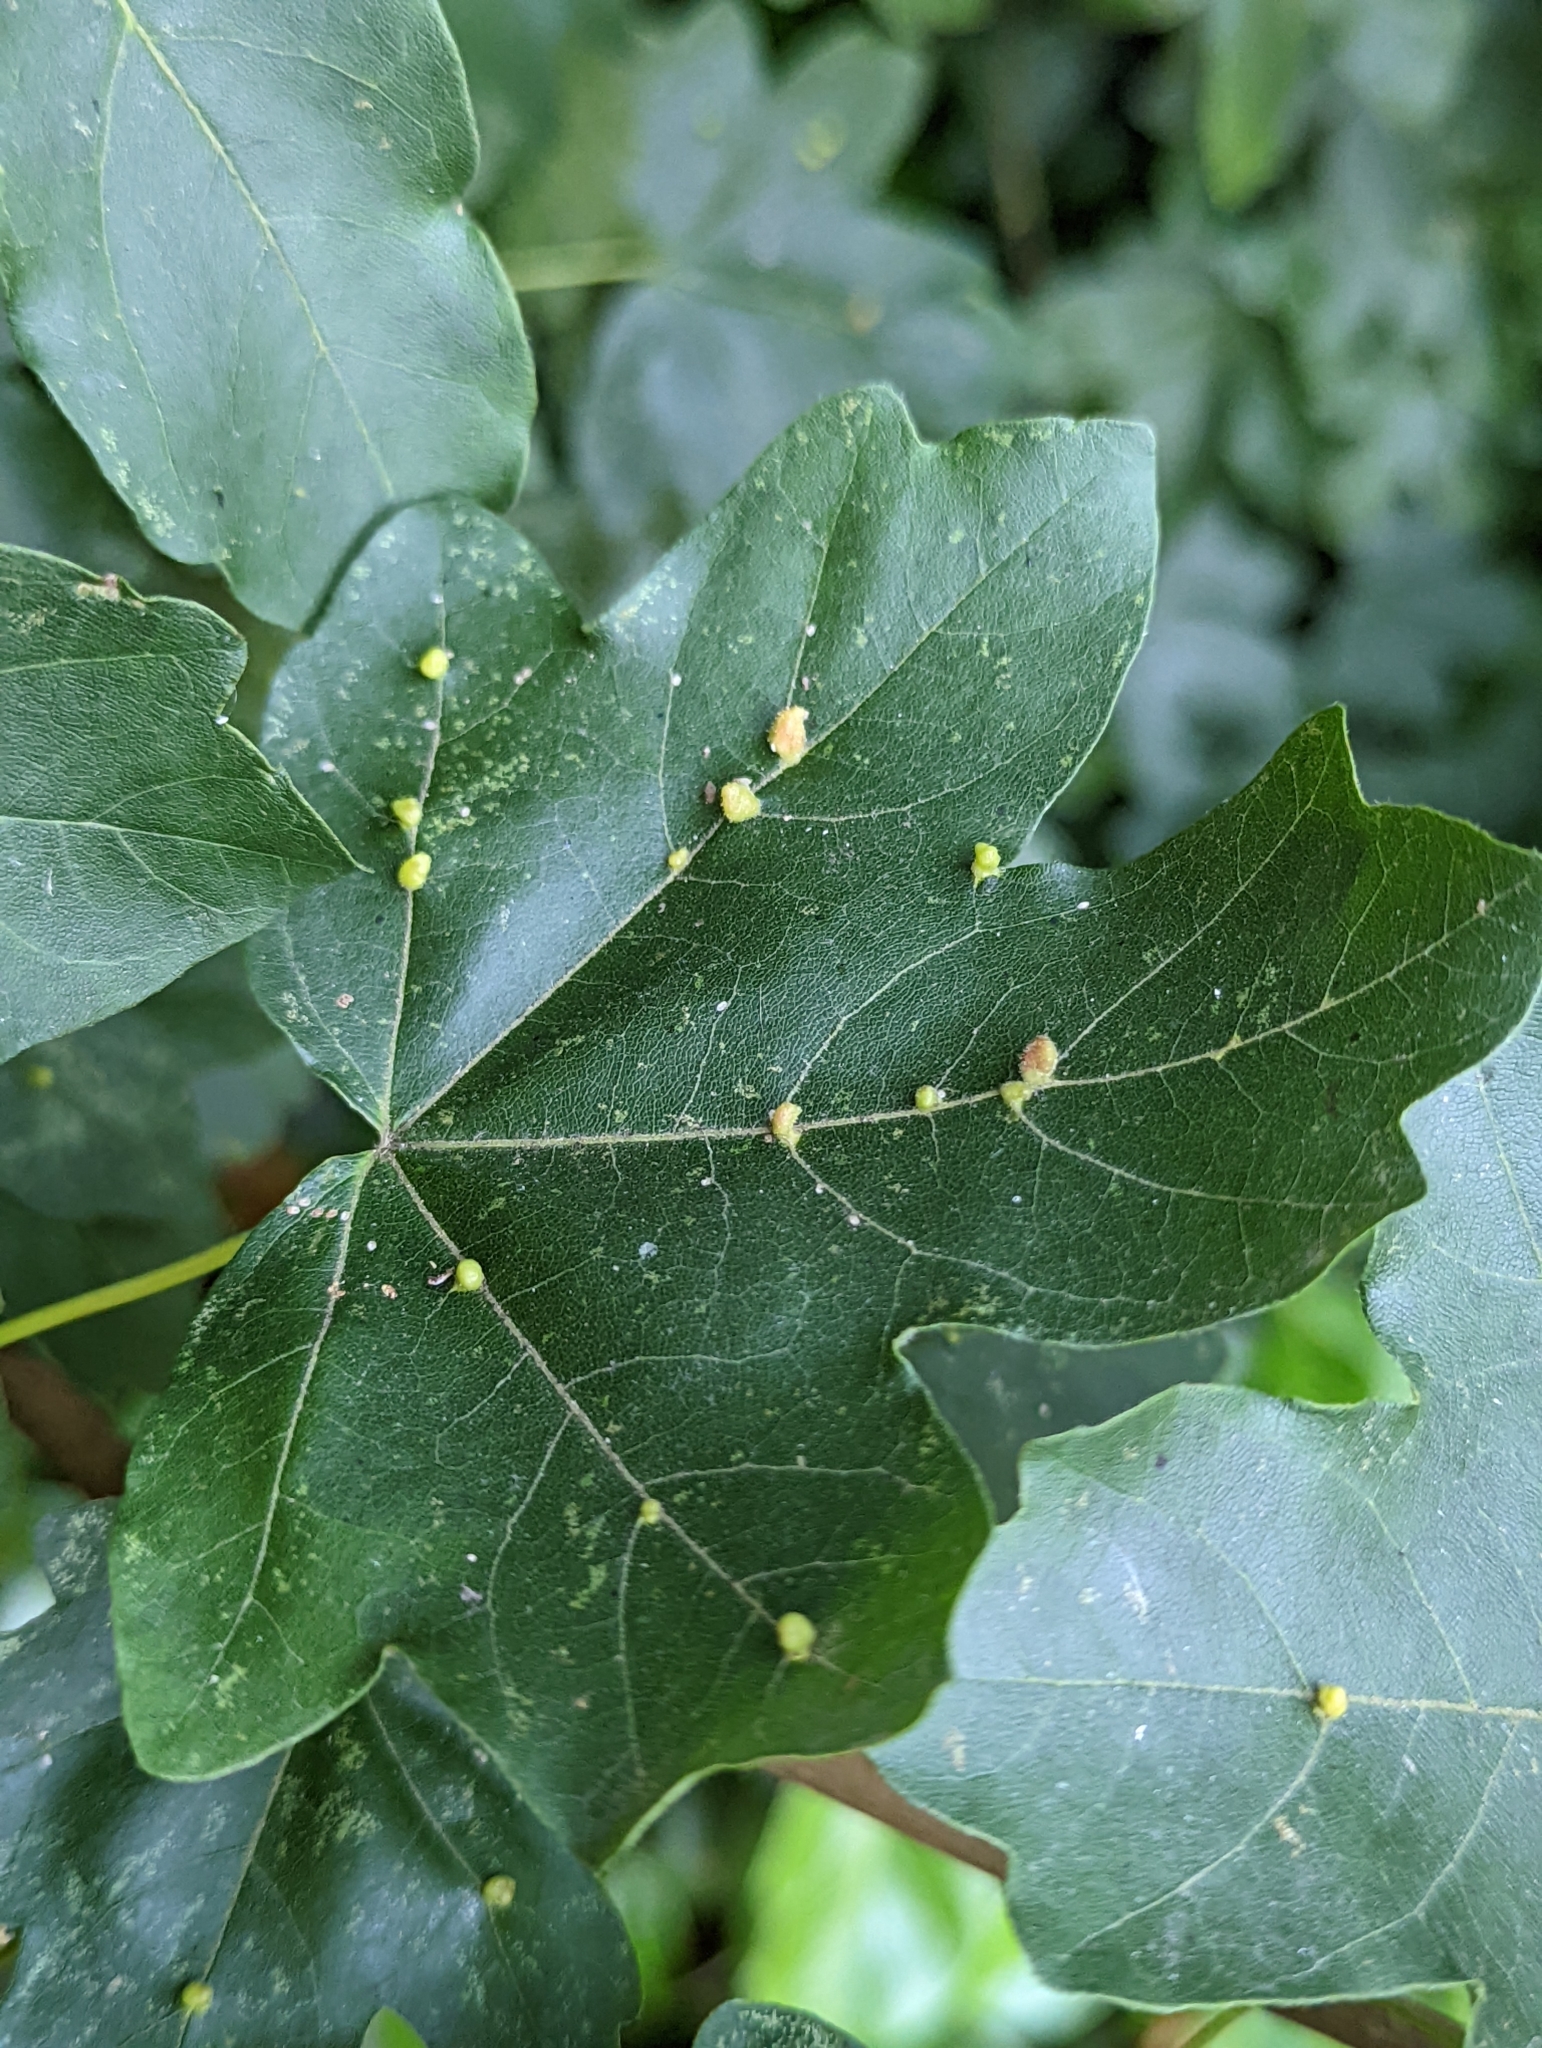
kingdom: Animalia
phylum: Arthropoda
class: Arachnida
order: Trombidiformes
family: Eriophyidae
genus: Aceria
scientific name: Aceria macrochelus
